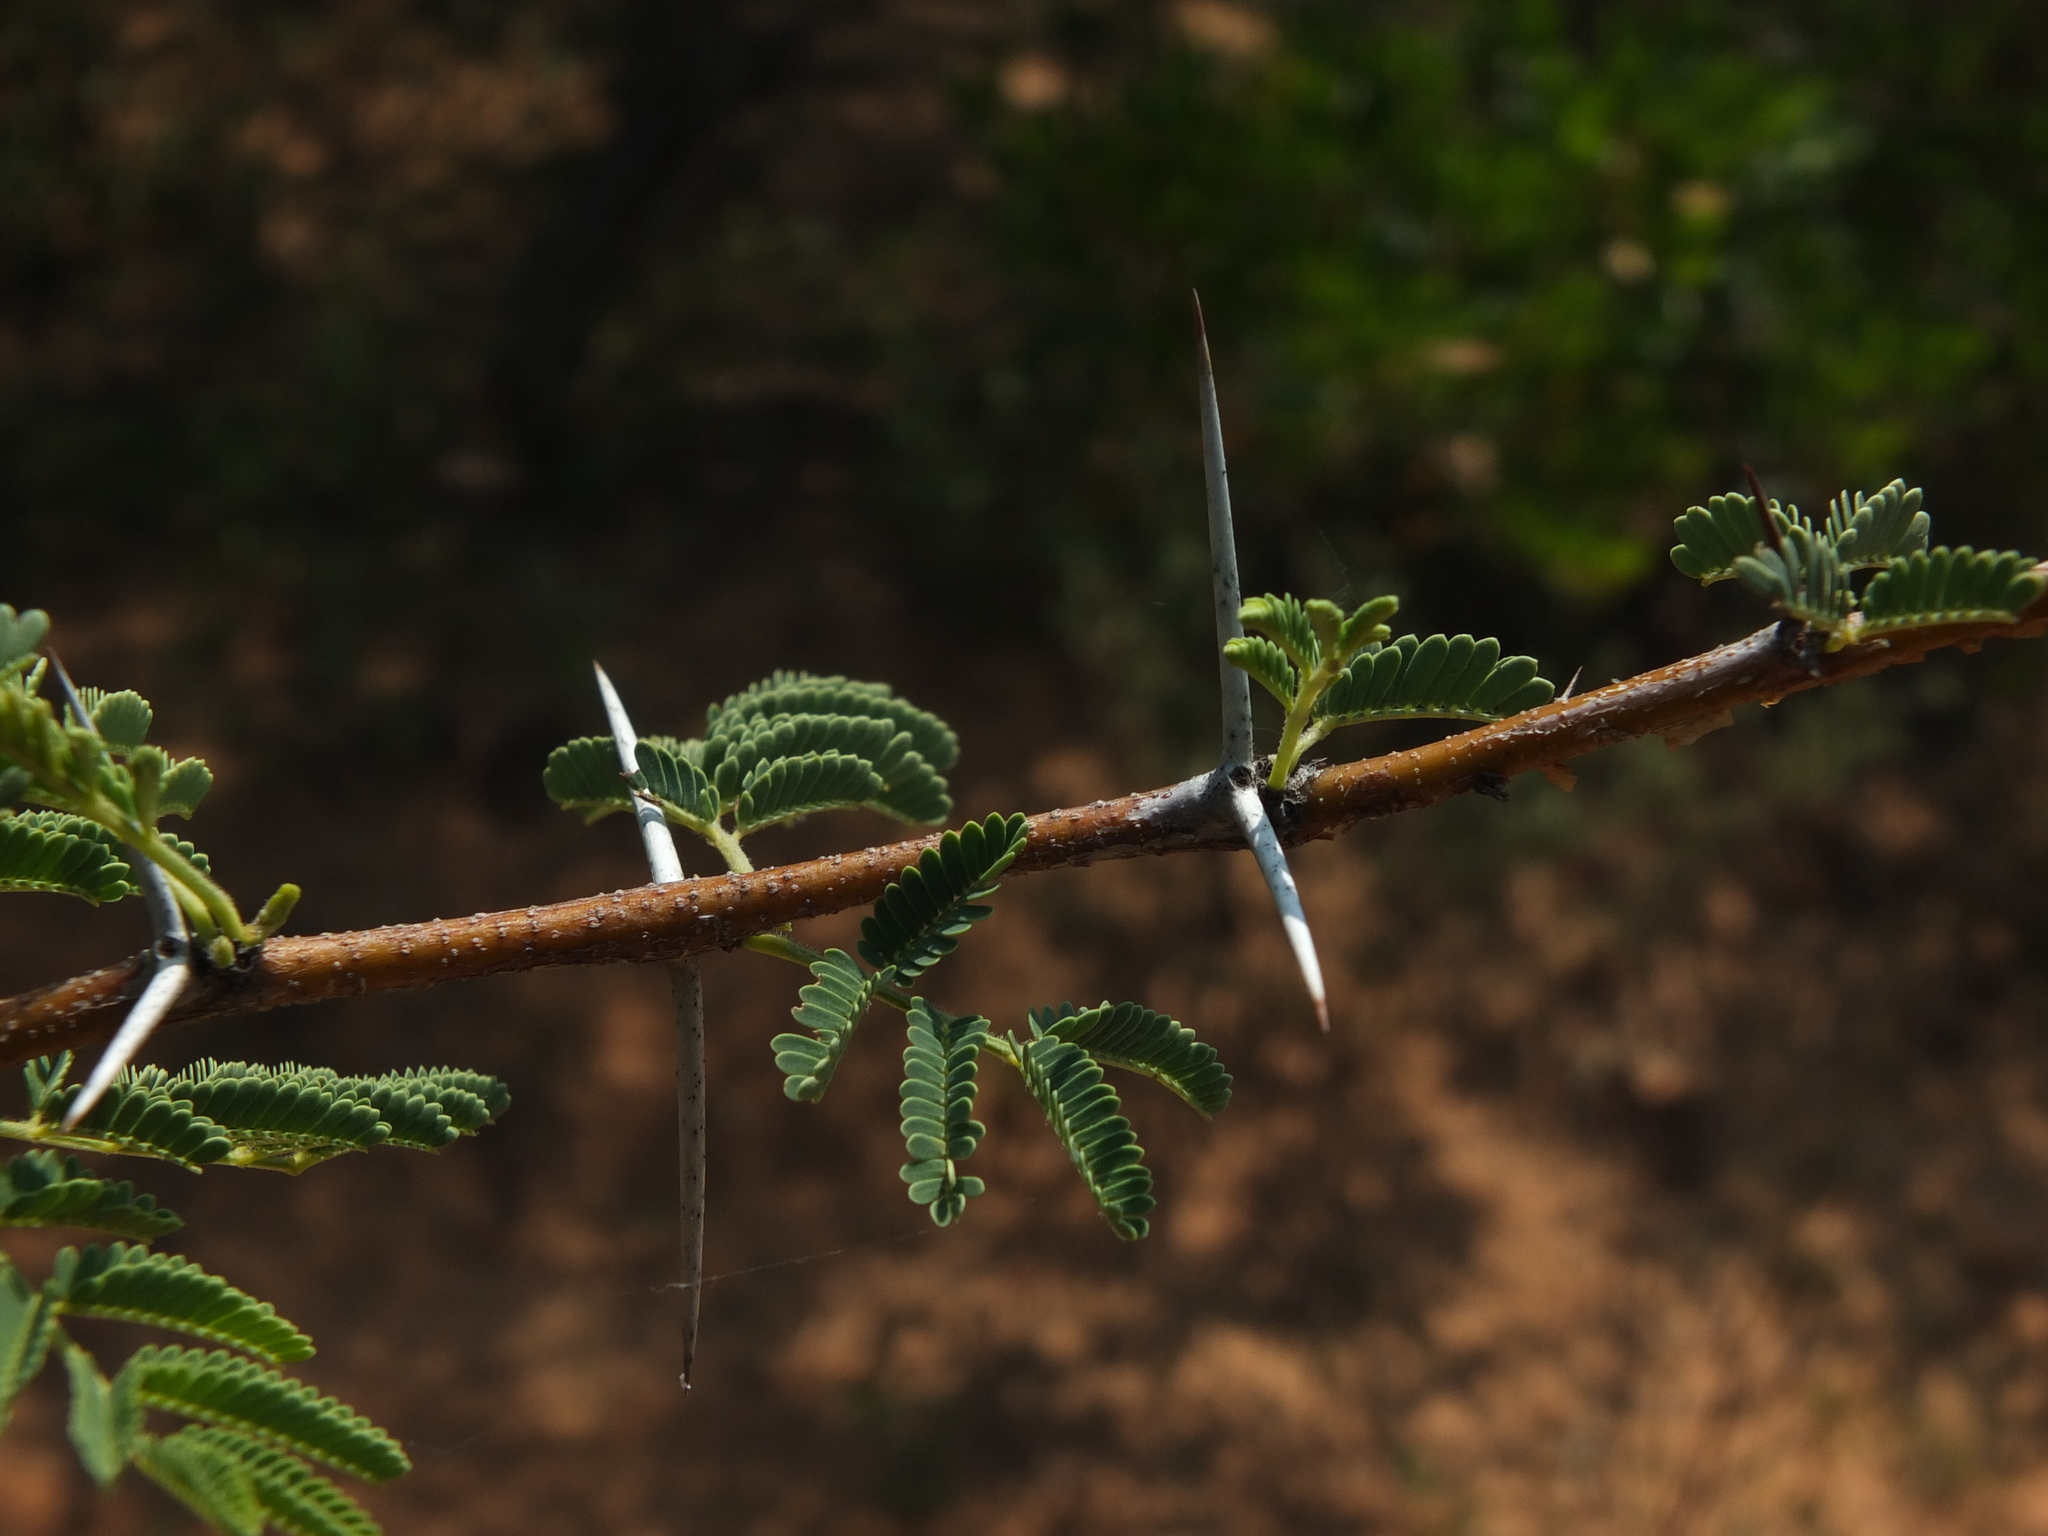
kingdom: Plantae
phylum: Tracheophyta
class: Magnoliopsida
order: Fabales
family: Fabaceae
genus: Vachellia
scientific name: Vachellia nilotica
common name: Arabic gumtree
